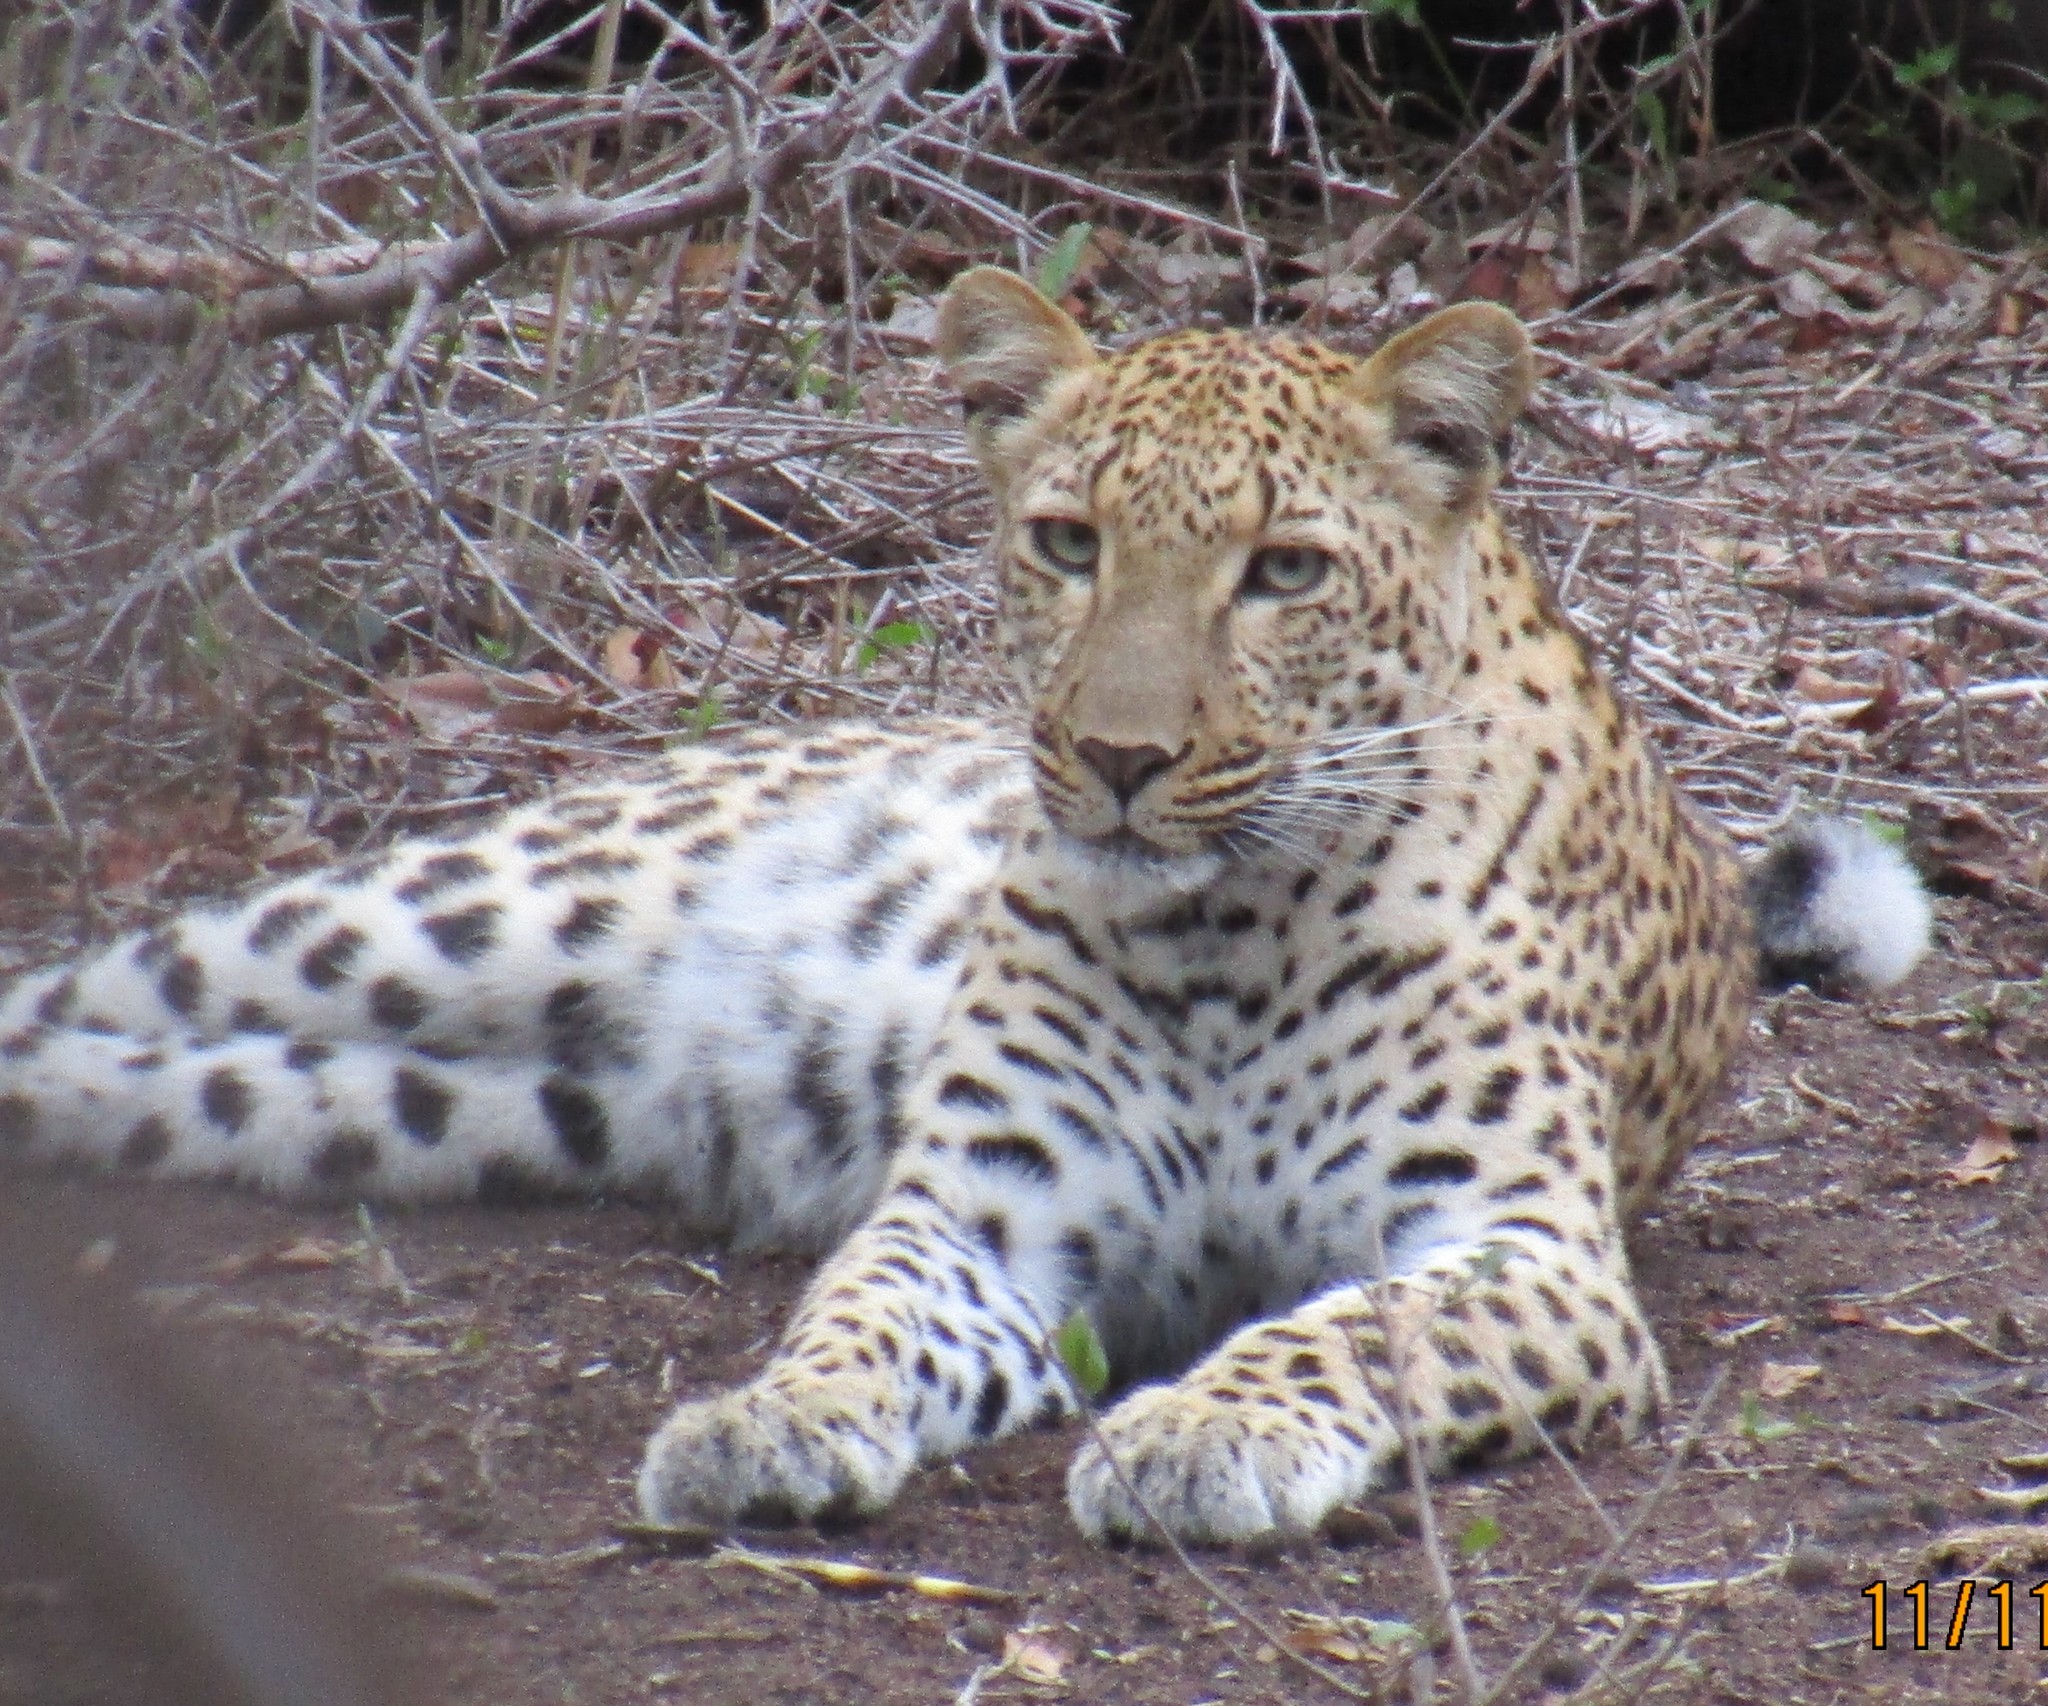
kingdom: Animalia
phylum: Chordata
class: Mammalia
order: Carnivora
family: Felidae
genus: Panthera
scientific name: Panthera pardus
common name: Leopard
